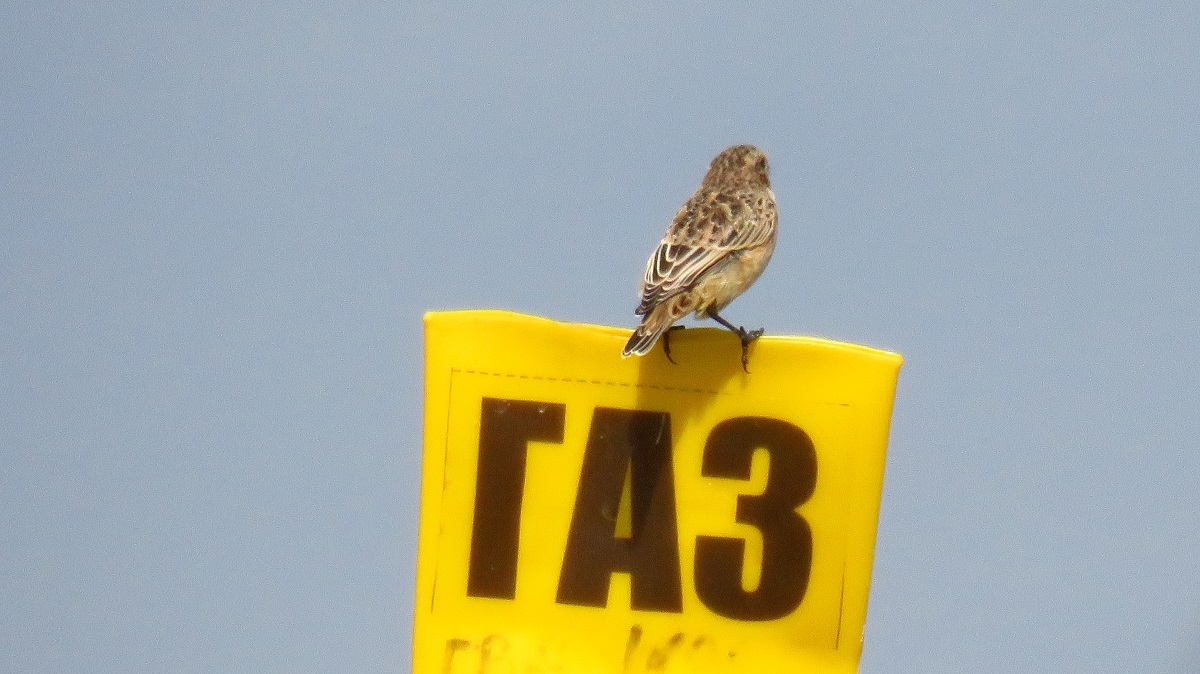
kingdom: Animalia
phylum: Chordata
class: Aves
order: Passeriformes
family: Muscicapidae
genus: Saxicola
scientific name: Saxicola rubetra
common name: Whinchat
